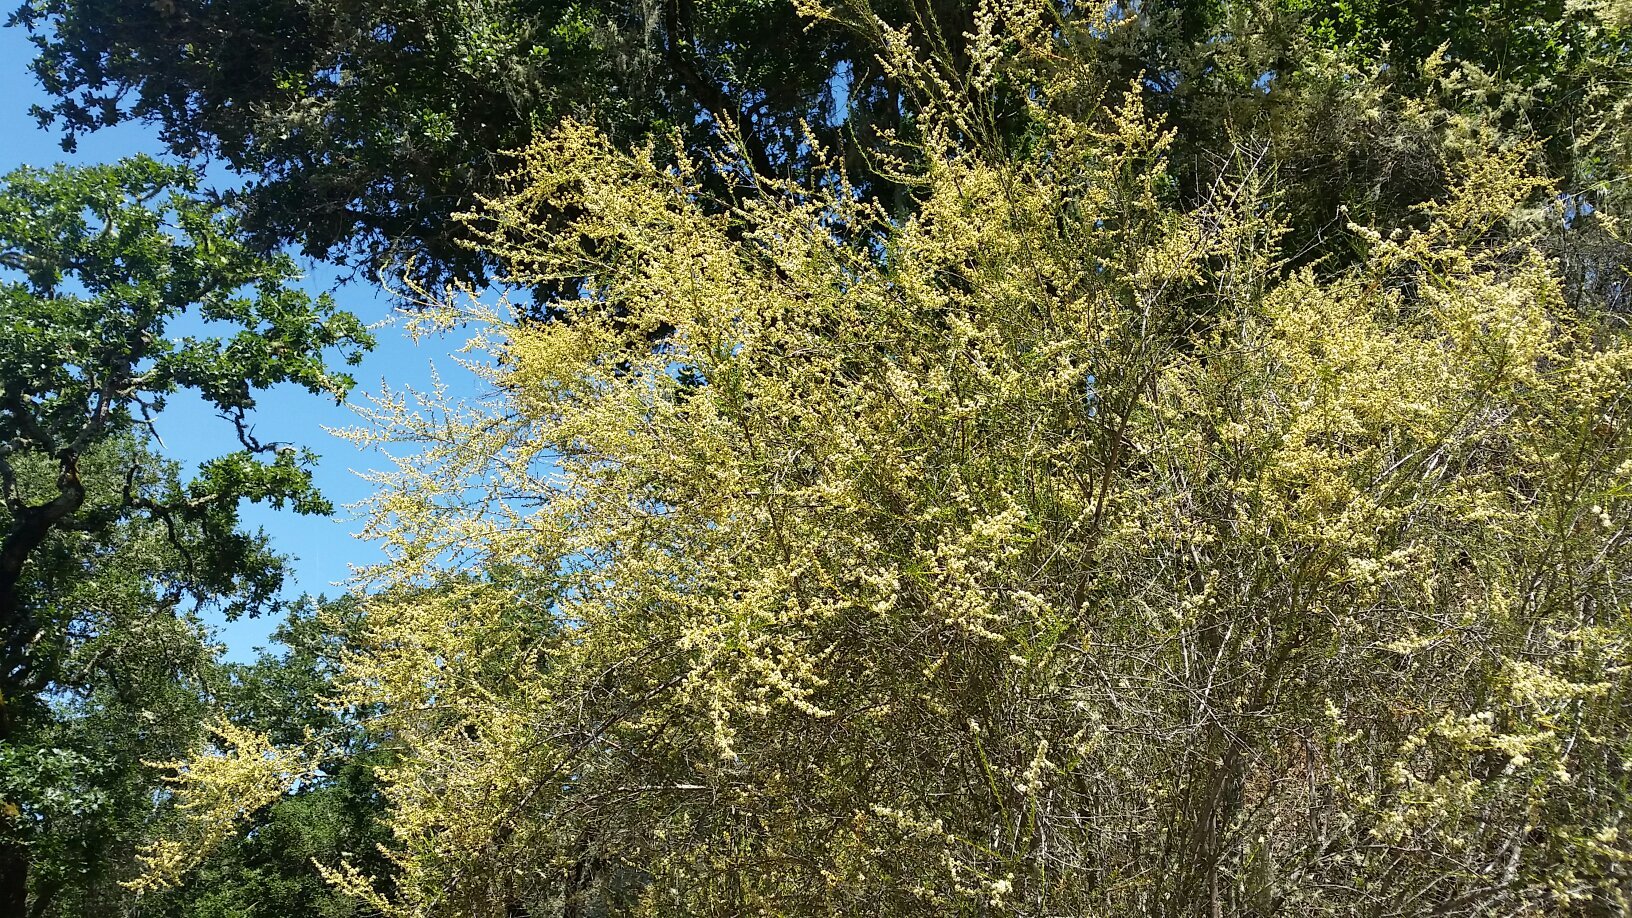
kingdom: Plantae
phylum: Tracheophyta
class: Magnoliopsida
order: Rosales
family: Rosaceae
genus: Adenostoma
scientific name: Adenostoma fasciculatum
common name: Chamise
